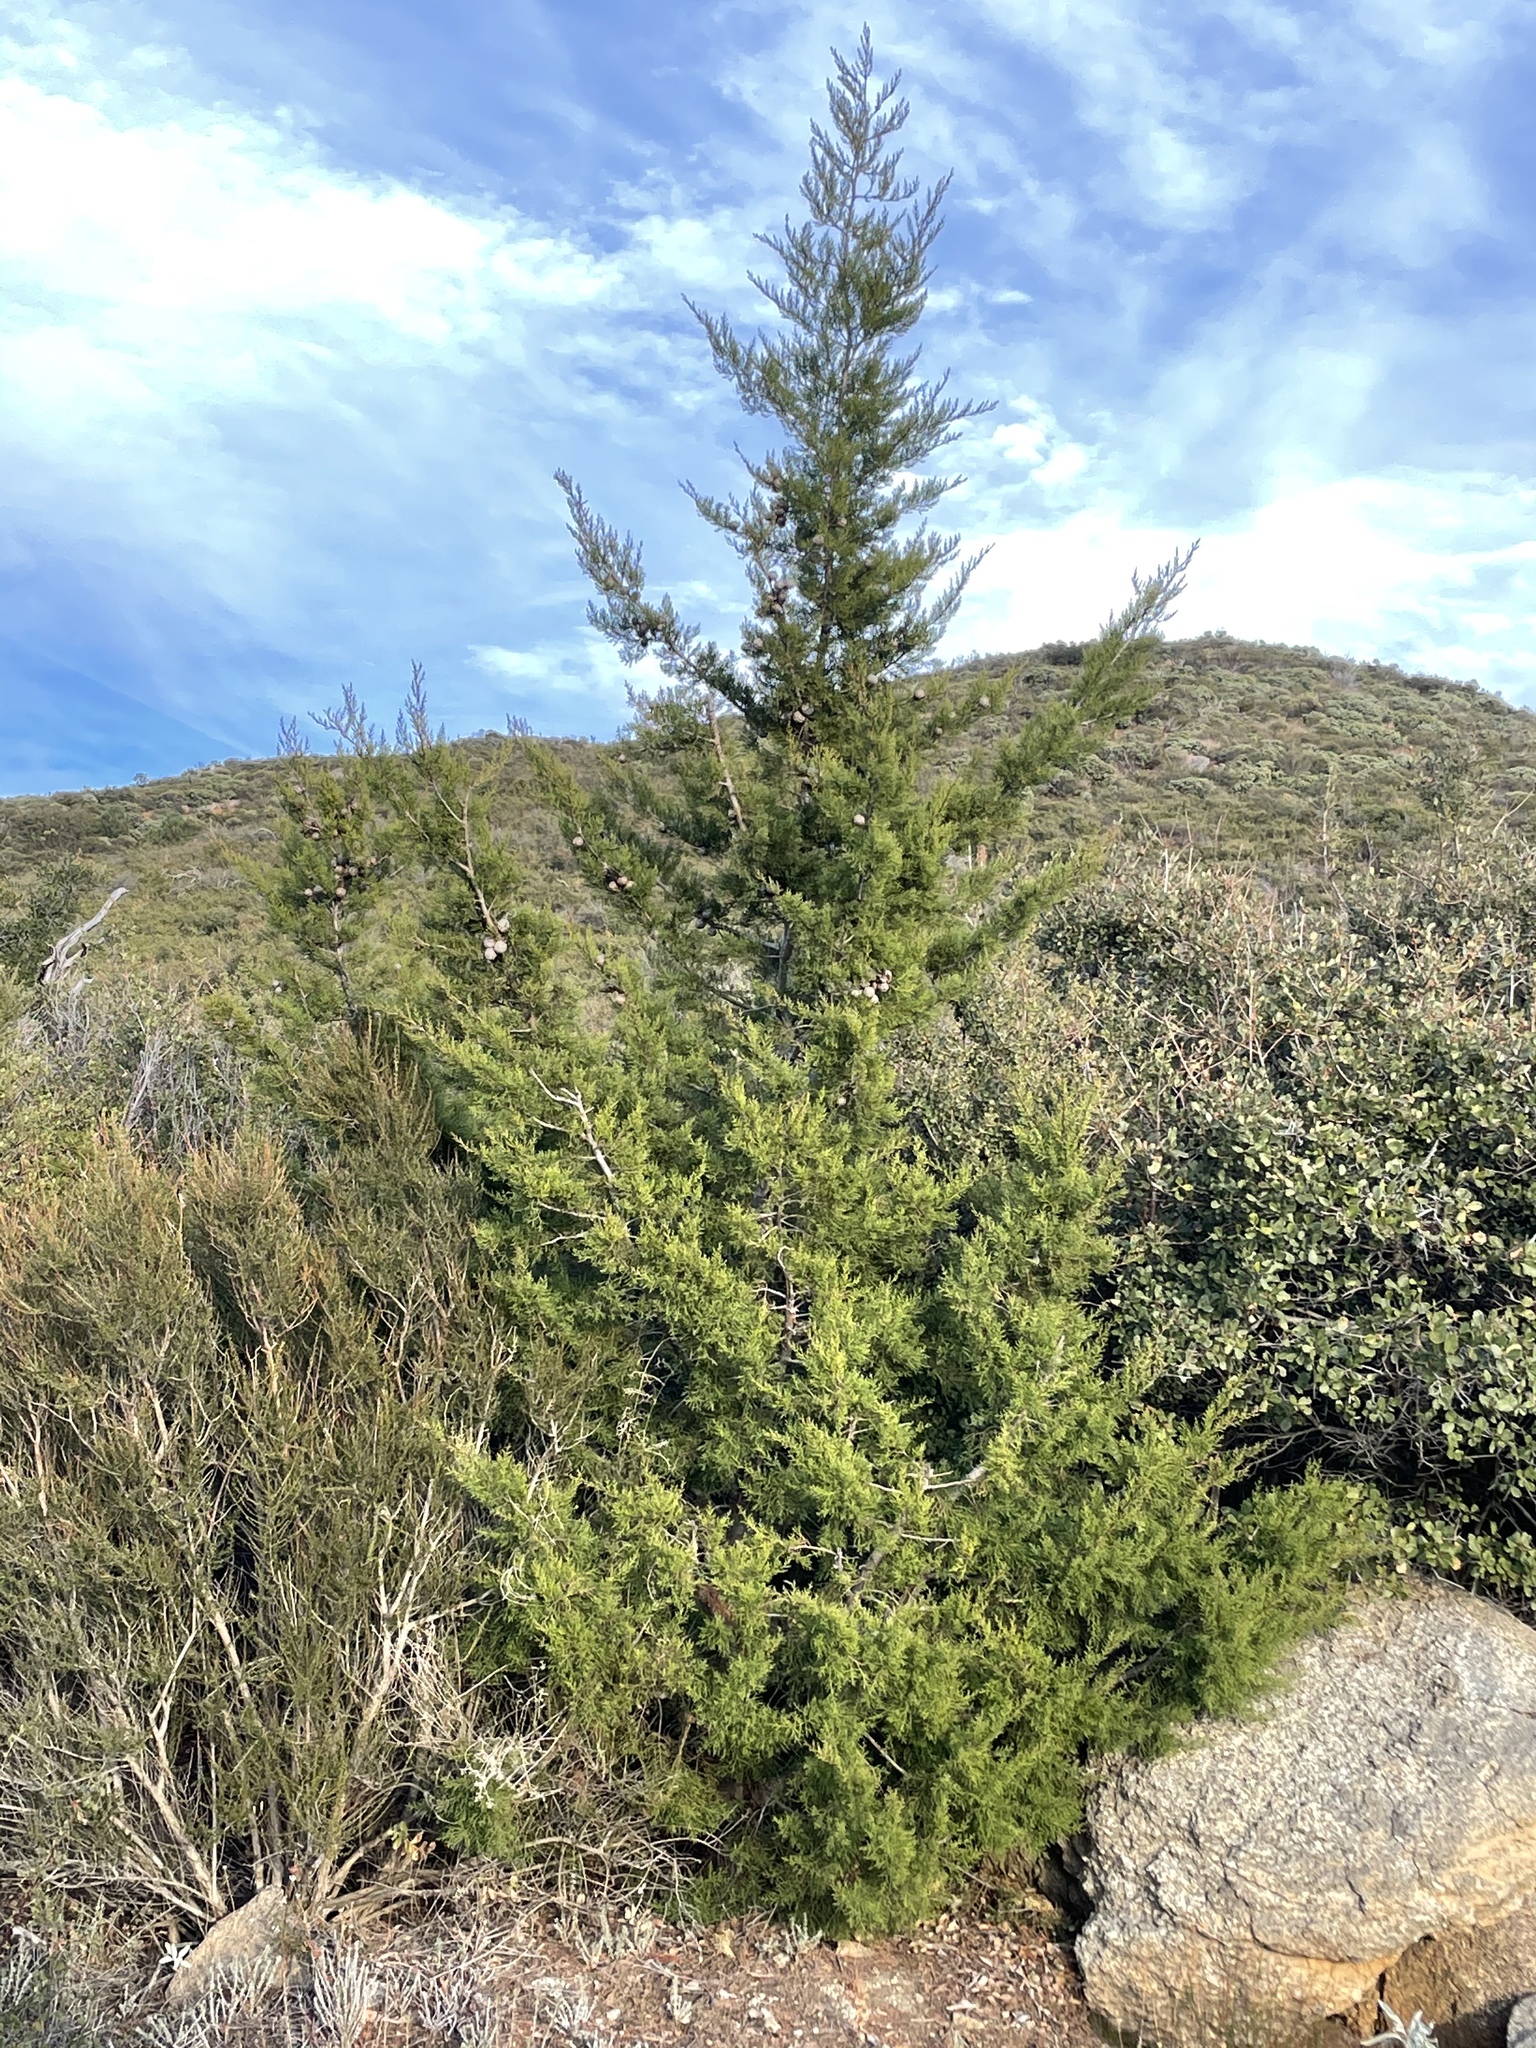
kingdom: Plantae
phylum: Tracheophyta
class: Pinopsida
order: Pinales
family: Cupressaceae
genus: Cupressus
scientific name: Cupressus guadalupensis
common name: Forbes cypress
